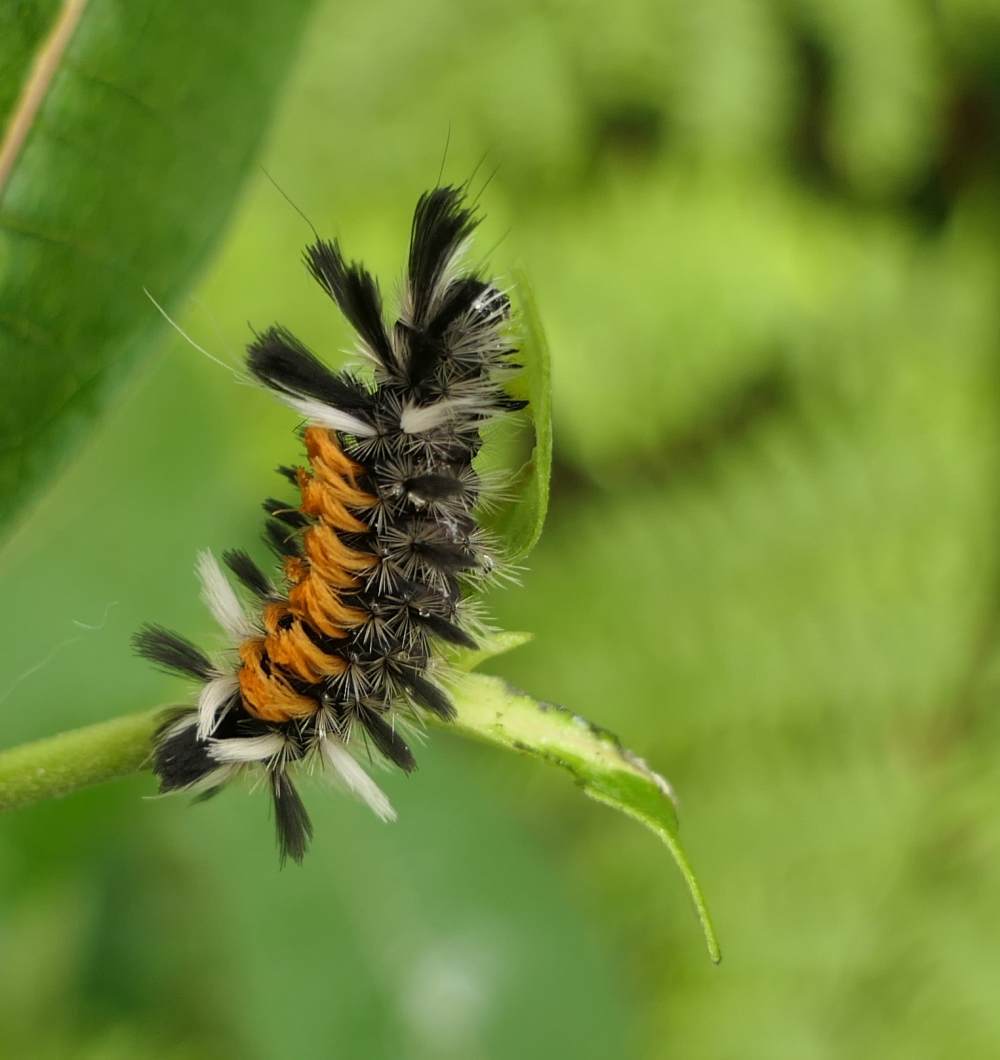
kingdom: Animalia
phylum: Arthropoda
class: Insecta
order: Lepidoptera
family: Erebidae
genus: Euchaetes
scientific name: Euchaetes egle
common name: Milkweed tussock moth
